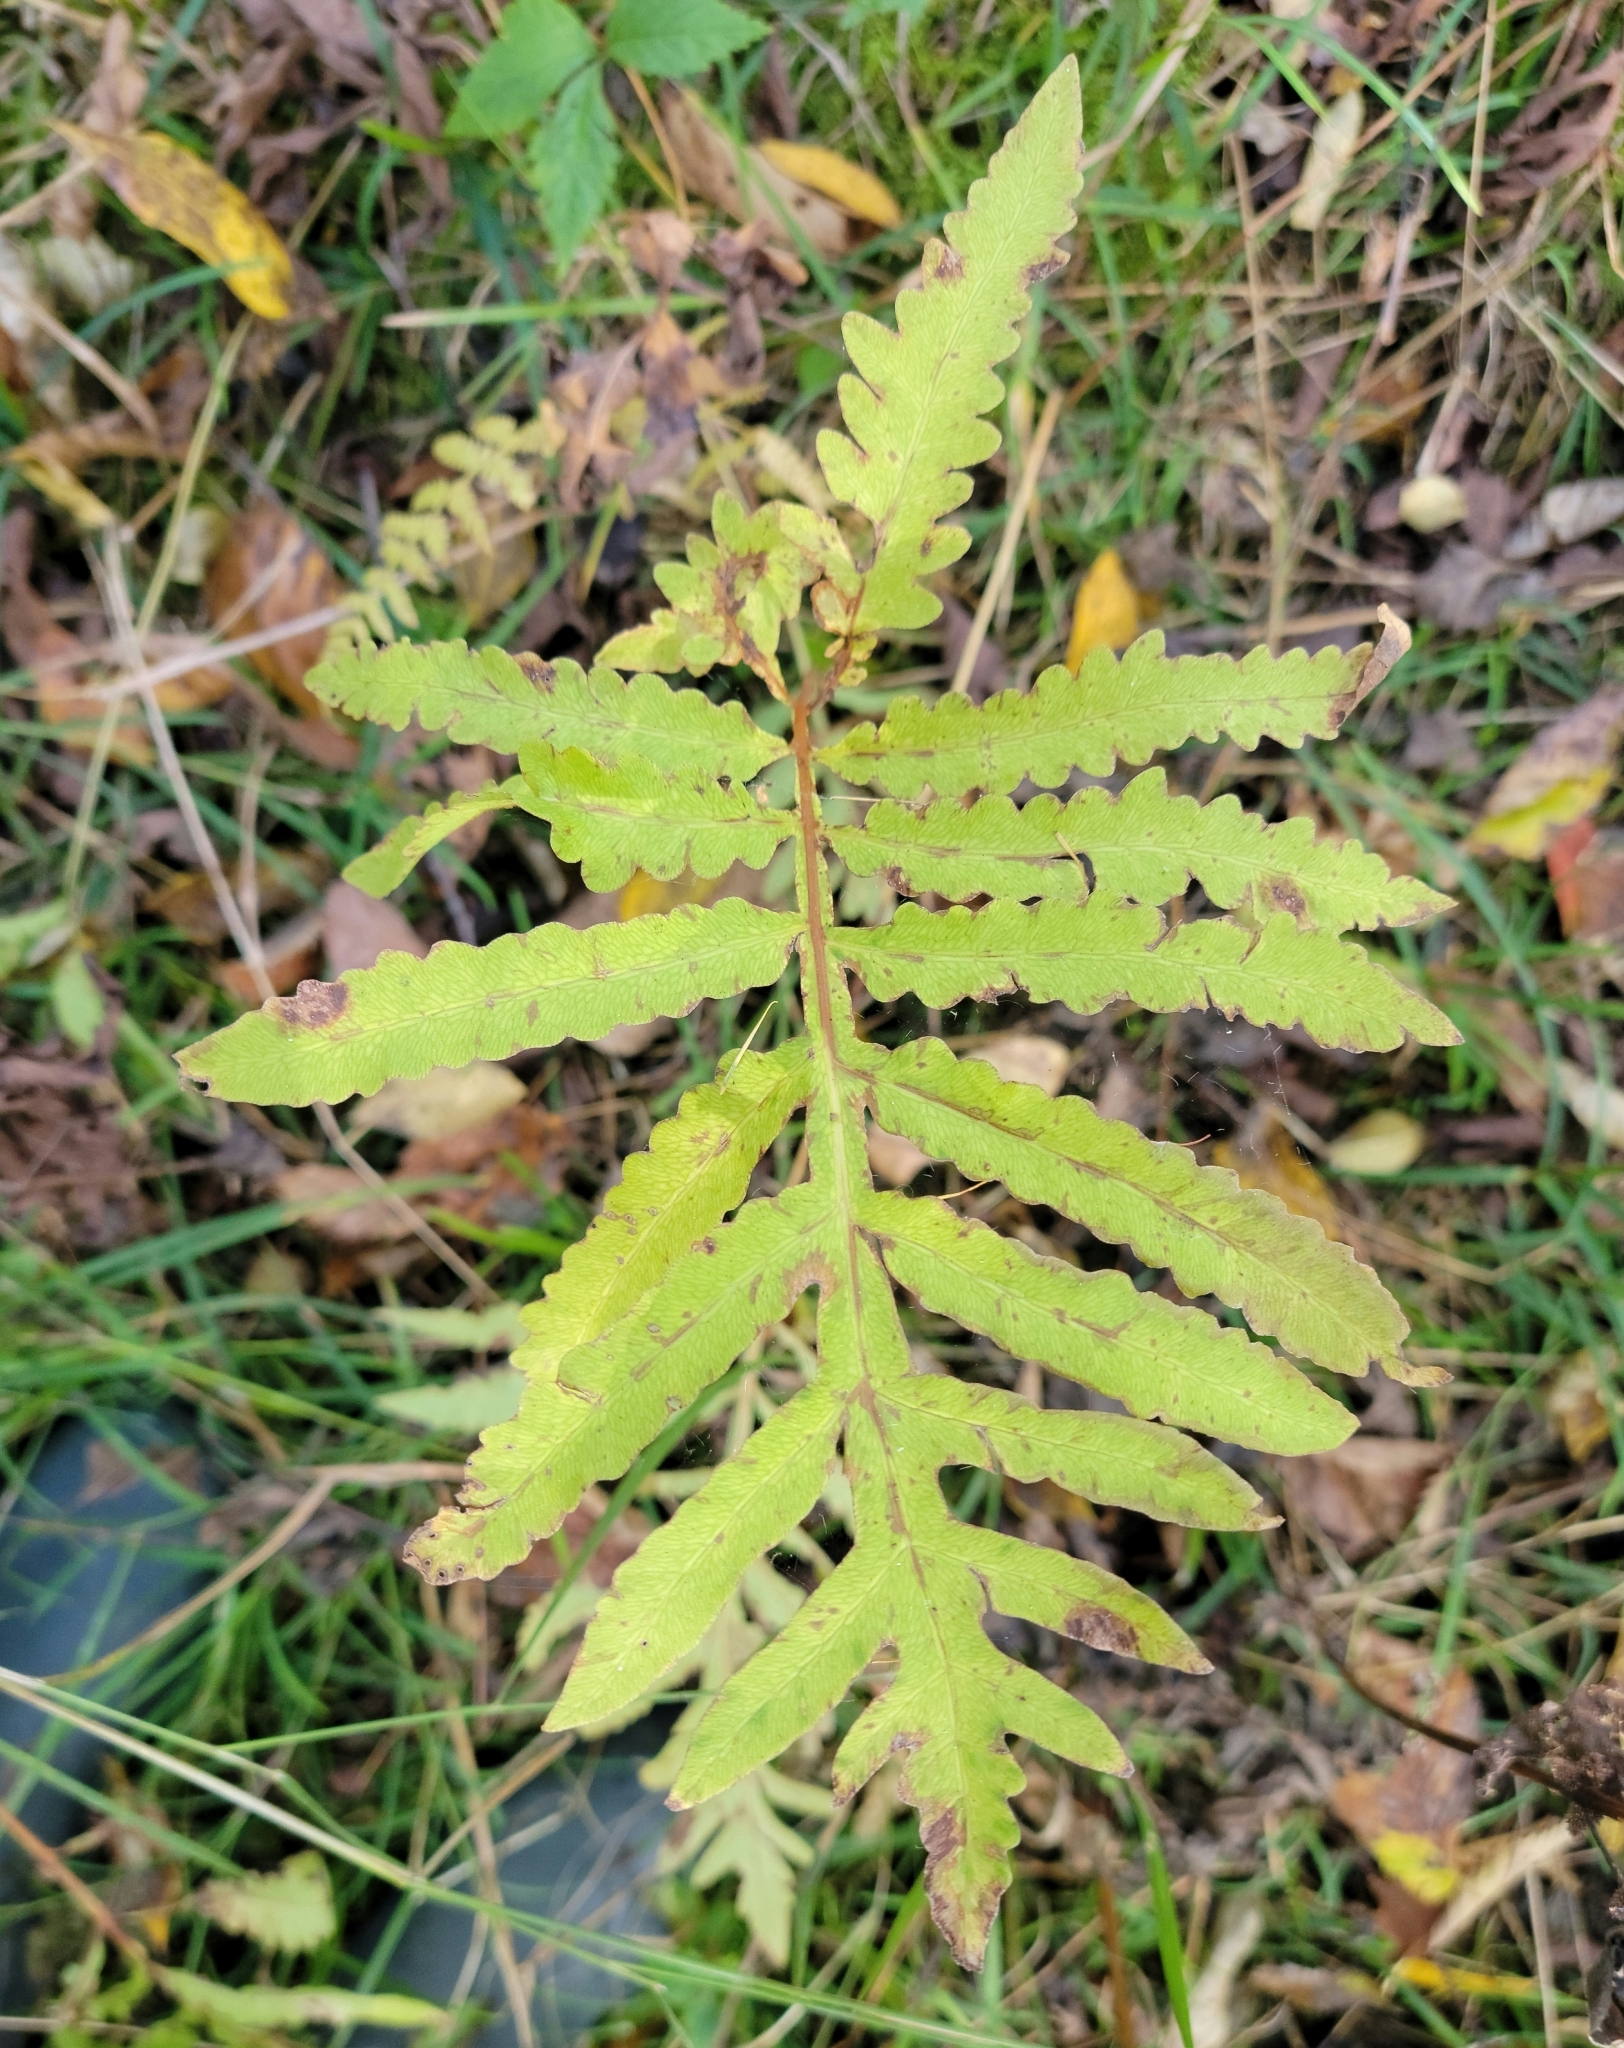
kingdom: Plantae
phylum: Tracheophyta
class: Polypodiopsida
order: Polypodiales
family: Onocleaceae
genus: Onoclea
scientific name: Onoclea sensibilis
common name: Sensitive fern
